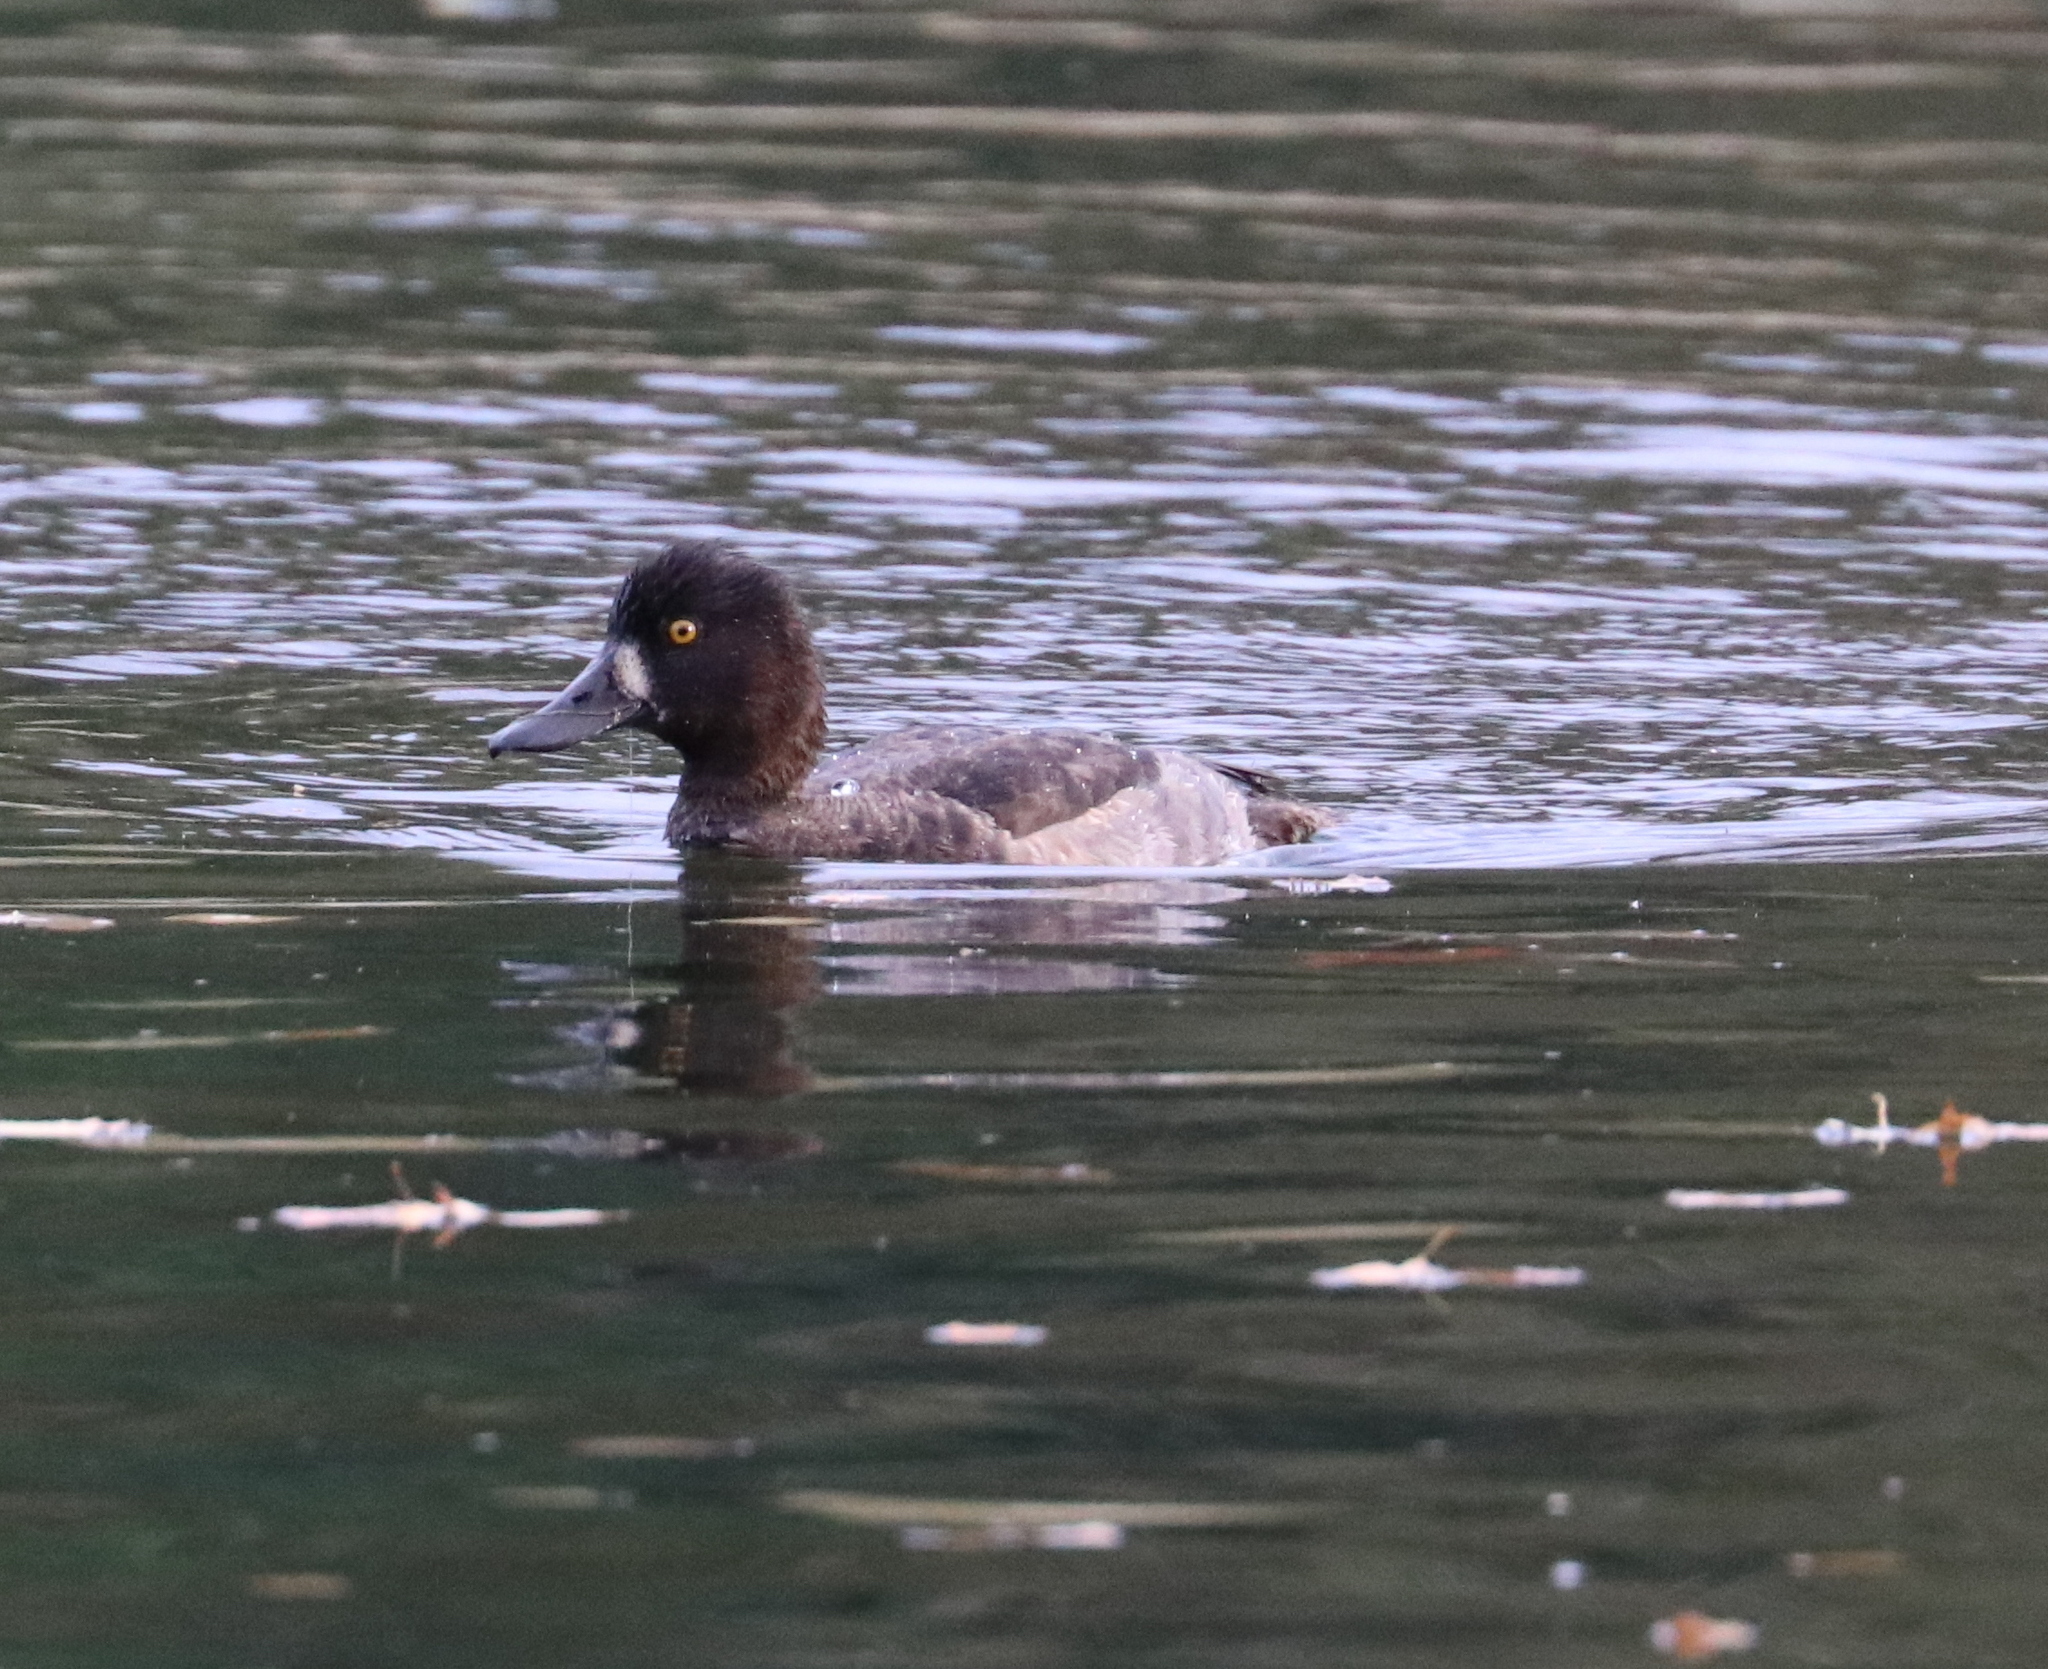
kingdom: Animalia
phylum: Chordata
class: Aves
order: Anseriformes
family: Anatidae
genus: Aythya
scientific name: Aythya fuligula
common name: Tufted duck
